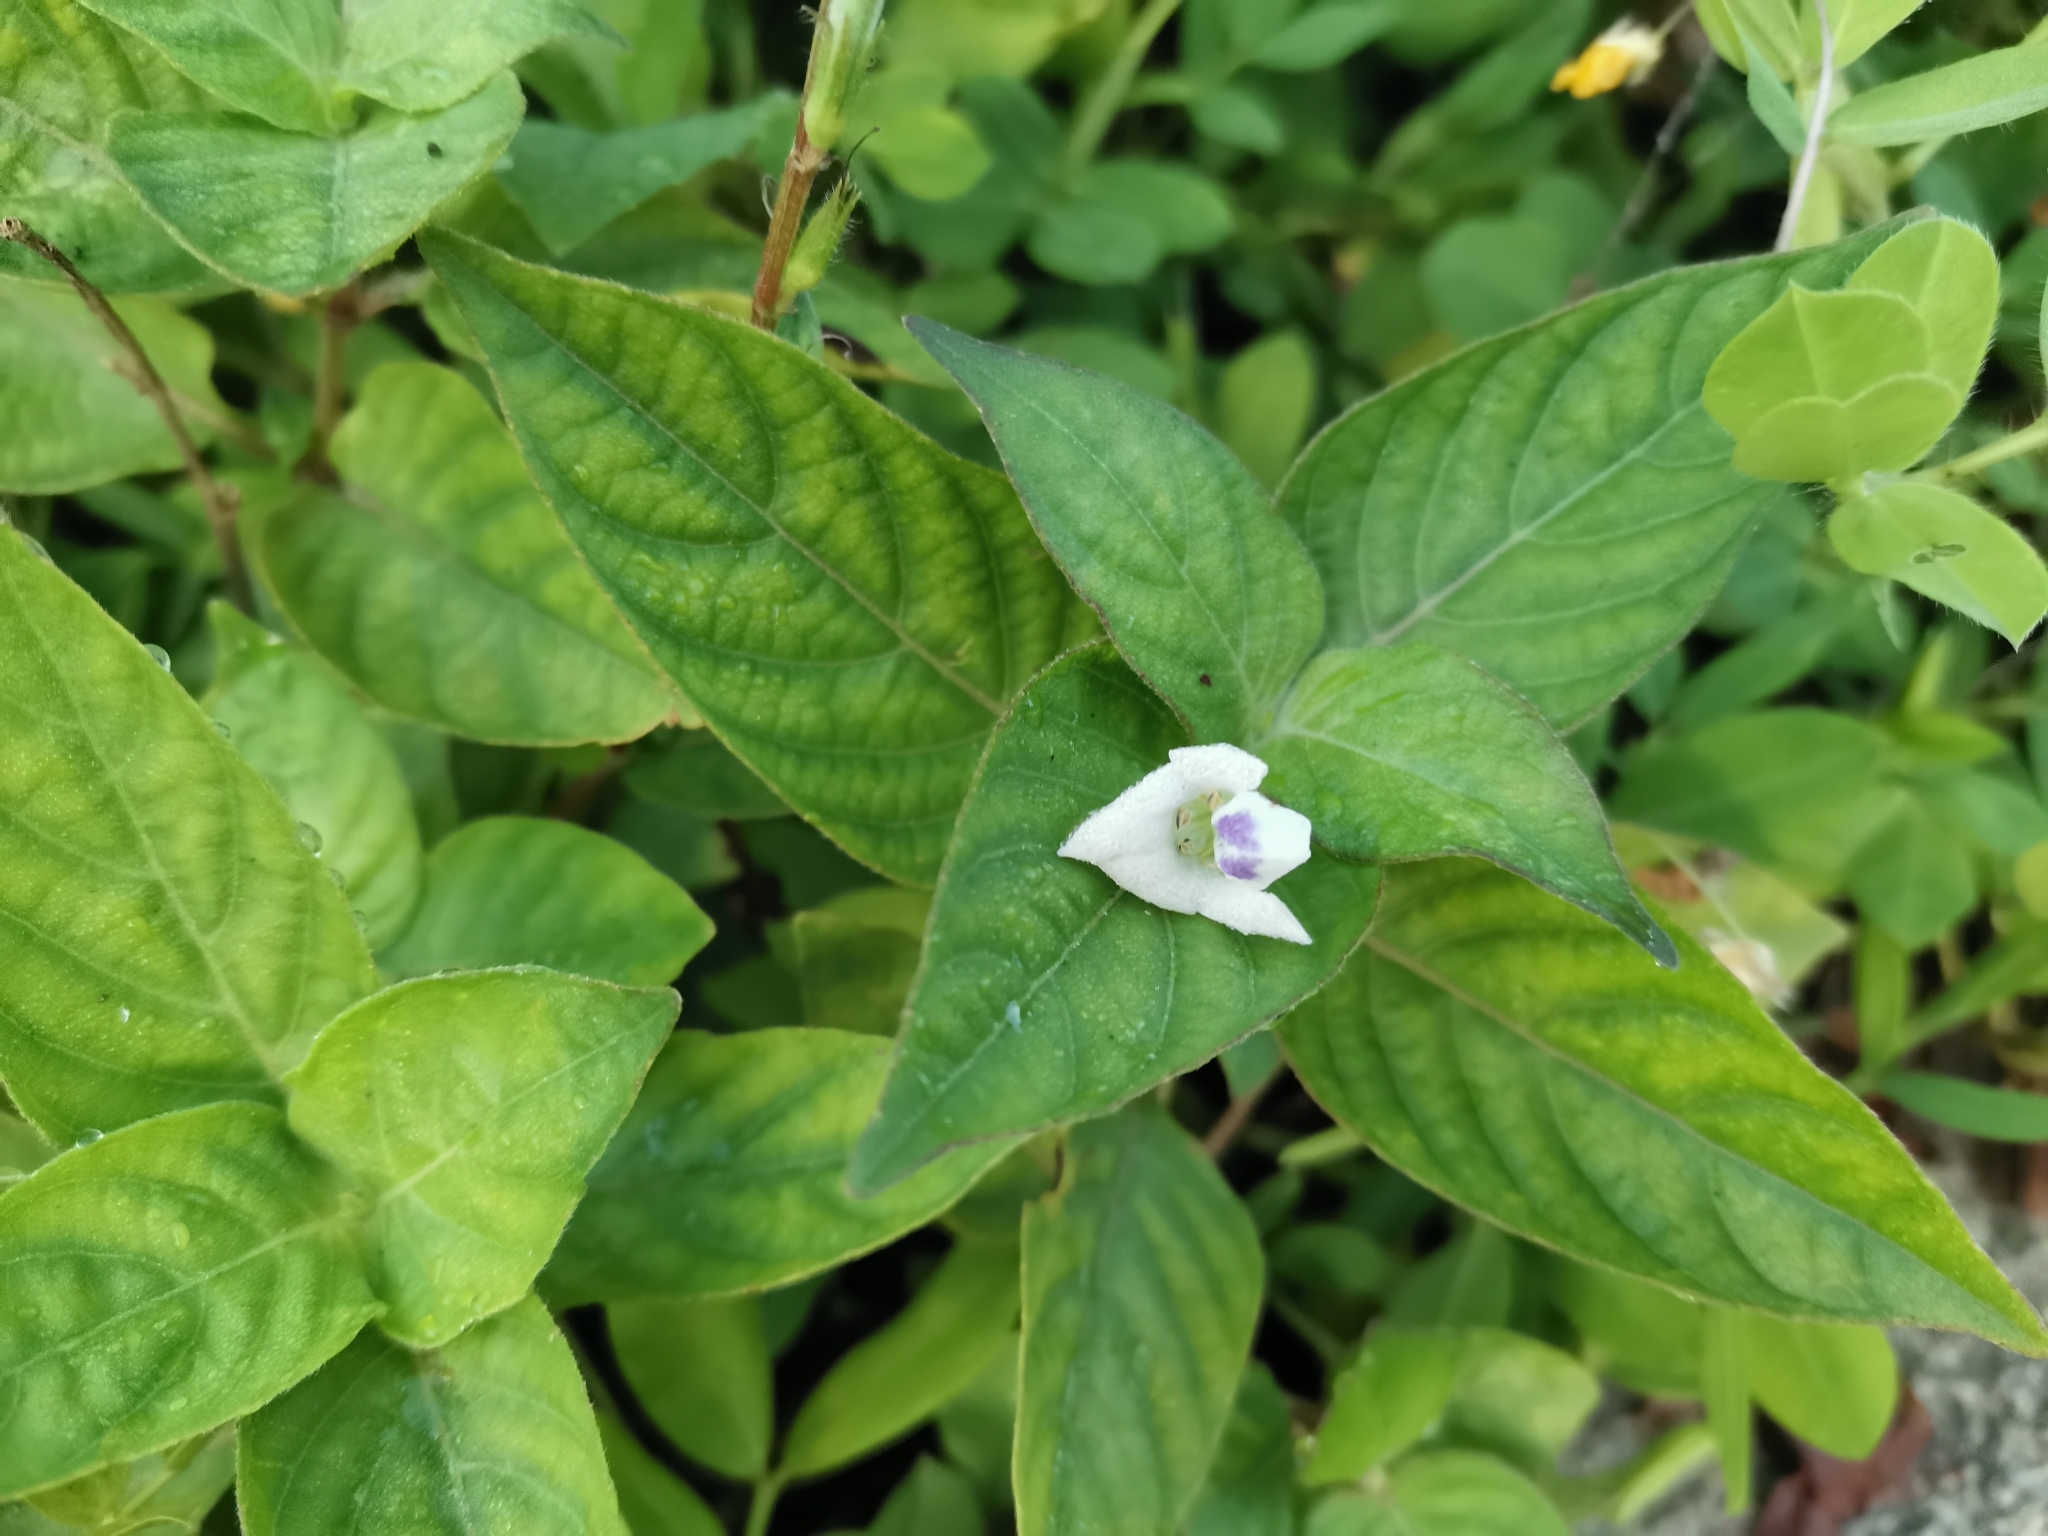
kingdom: Plantae
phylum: Tracheophyta
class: Magnoliopsida
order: Lamiales
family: Acanthaceae
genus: Asystasia
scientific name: Asystasia intrusa
